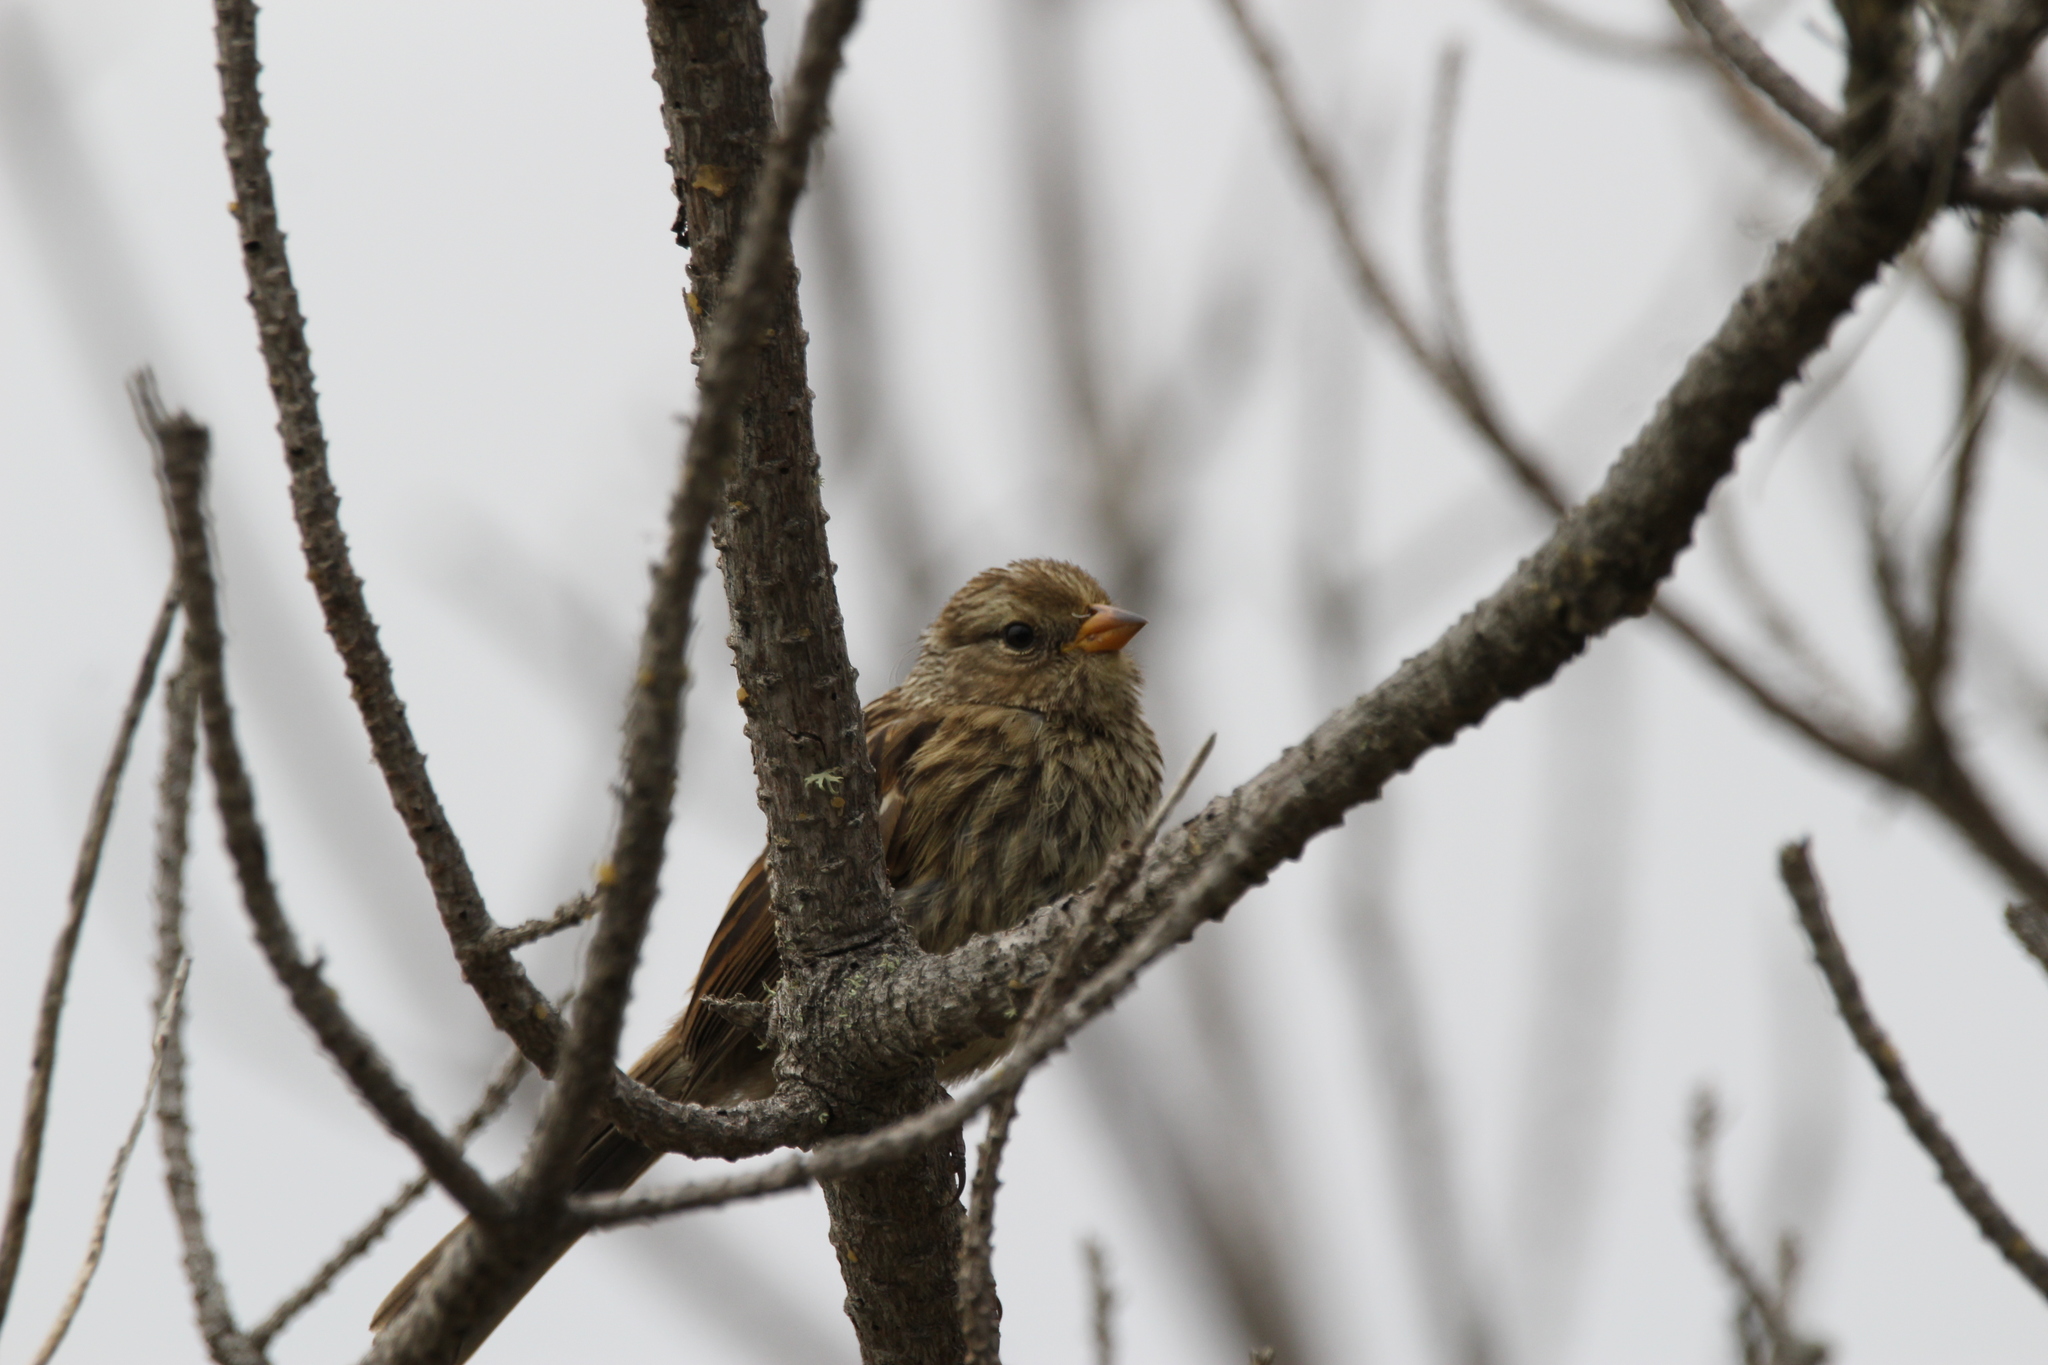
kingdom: Animalia
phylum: Chordata
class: Aves
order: Passeriformes
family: Passerellidae
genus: Zonotrichia
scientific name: Zonotrichia leucophrys
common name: White-crowned sparrow
